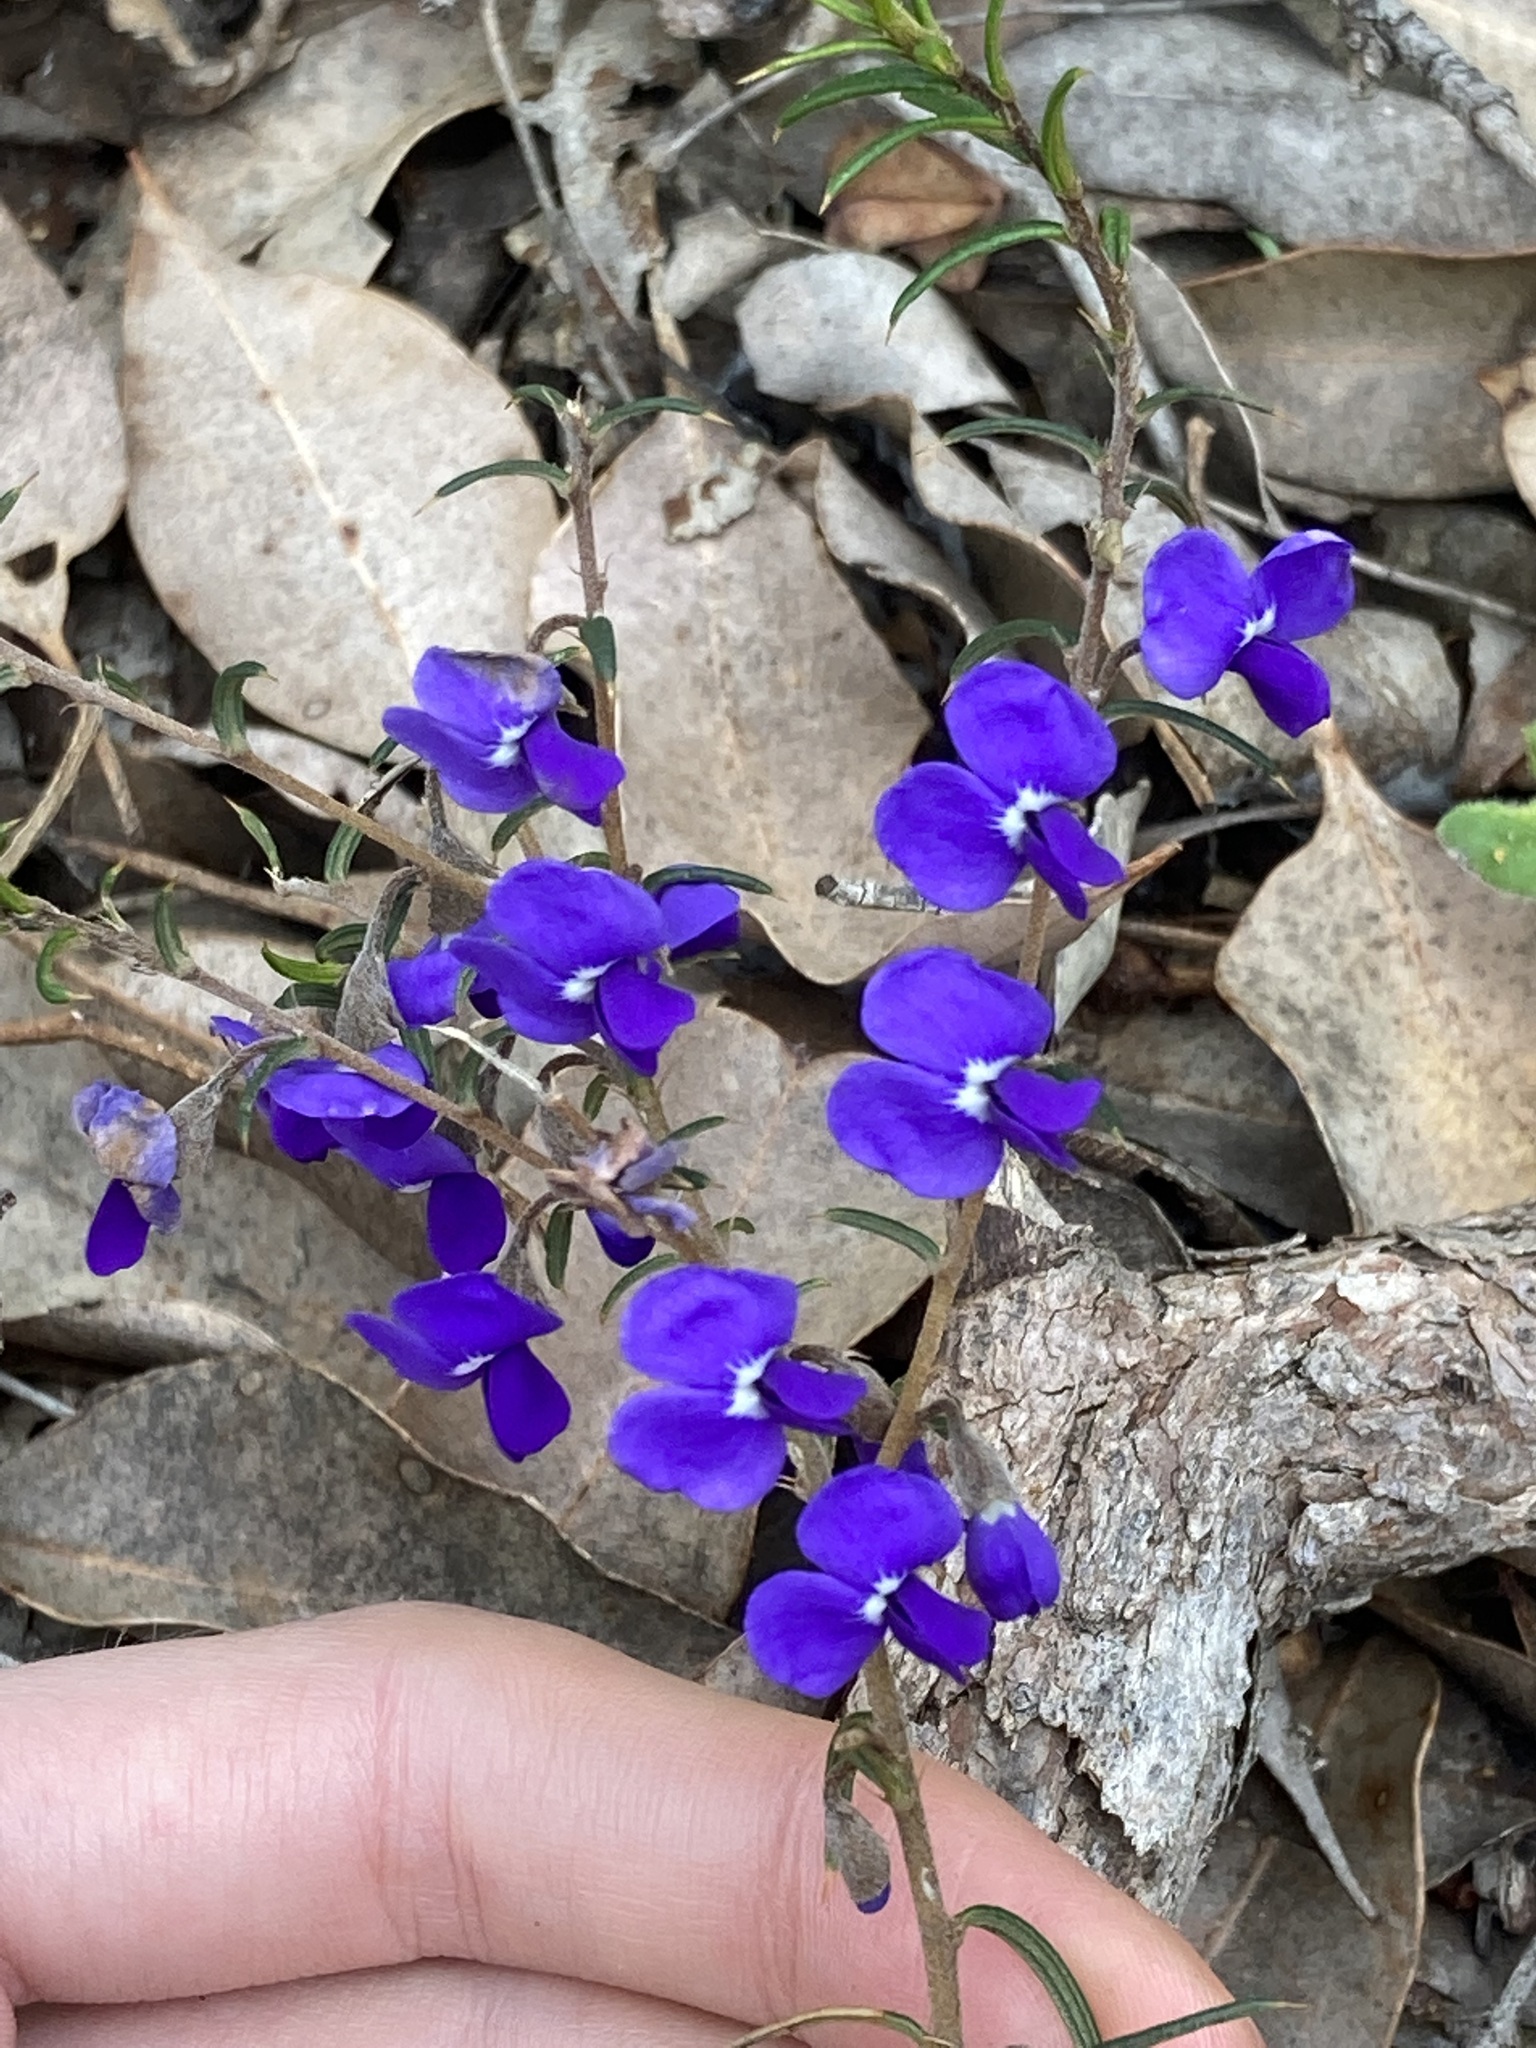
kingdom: Plantae
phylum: Tracheophyta
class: Magnoliopsida
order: Fabales
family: Fabaceae
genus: Hovea
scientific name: Hovea pungens
